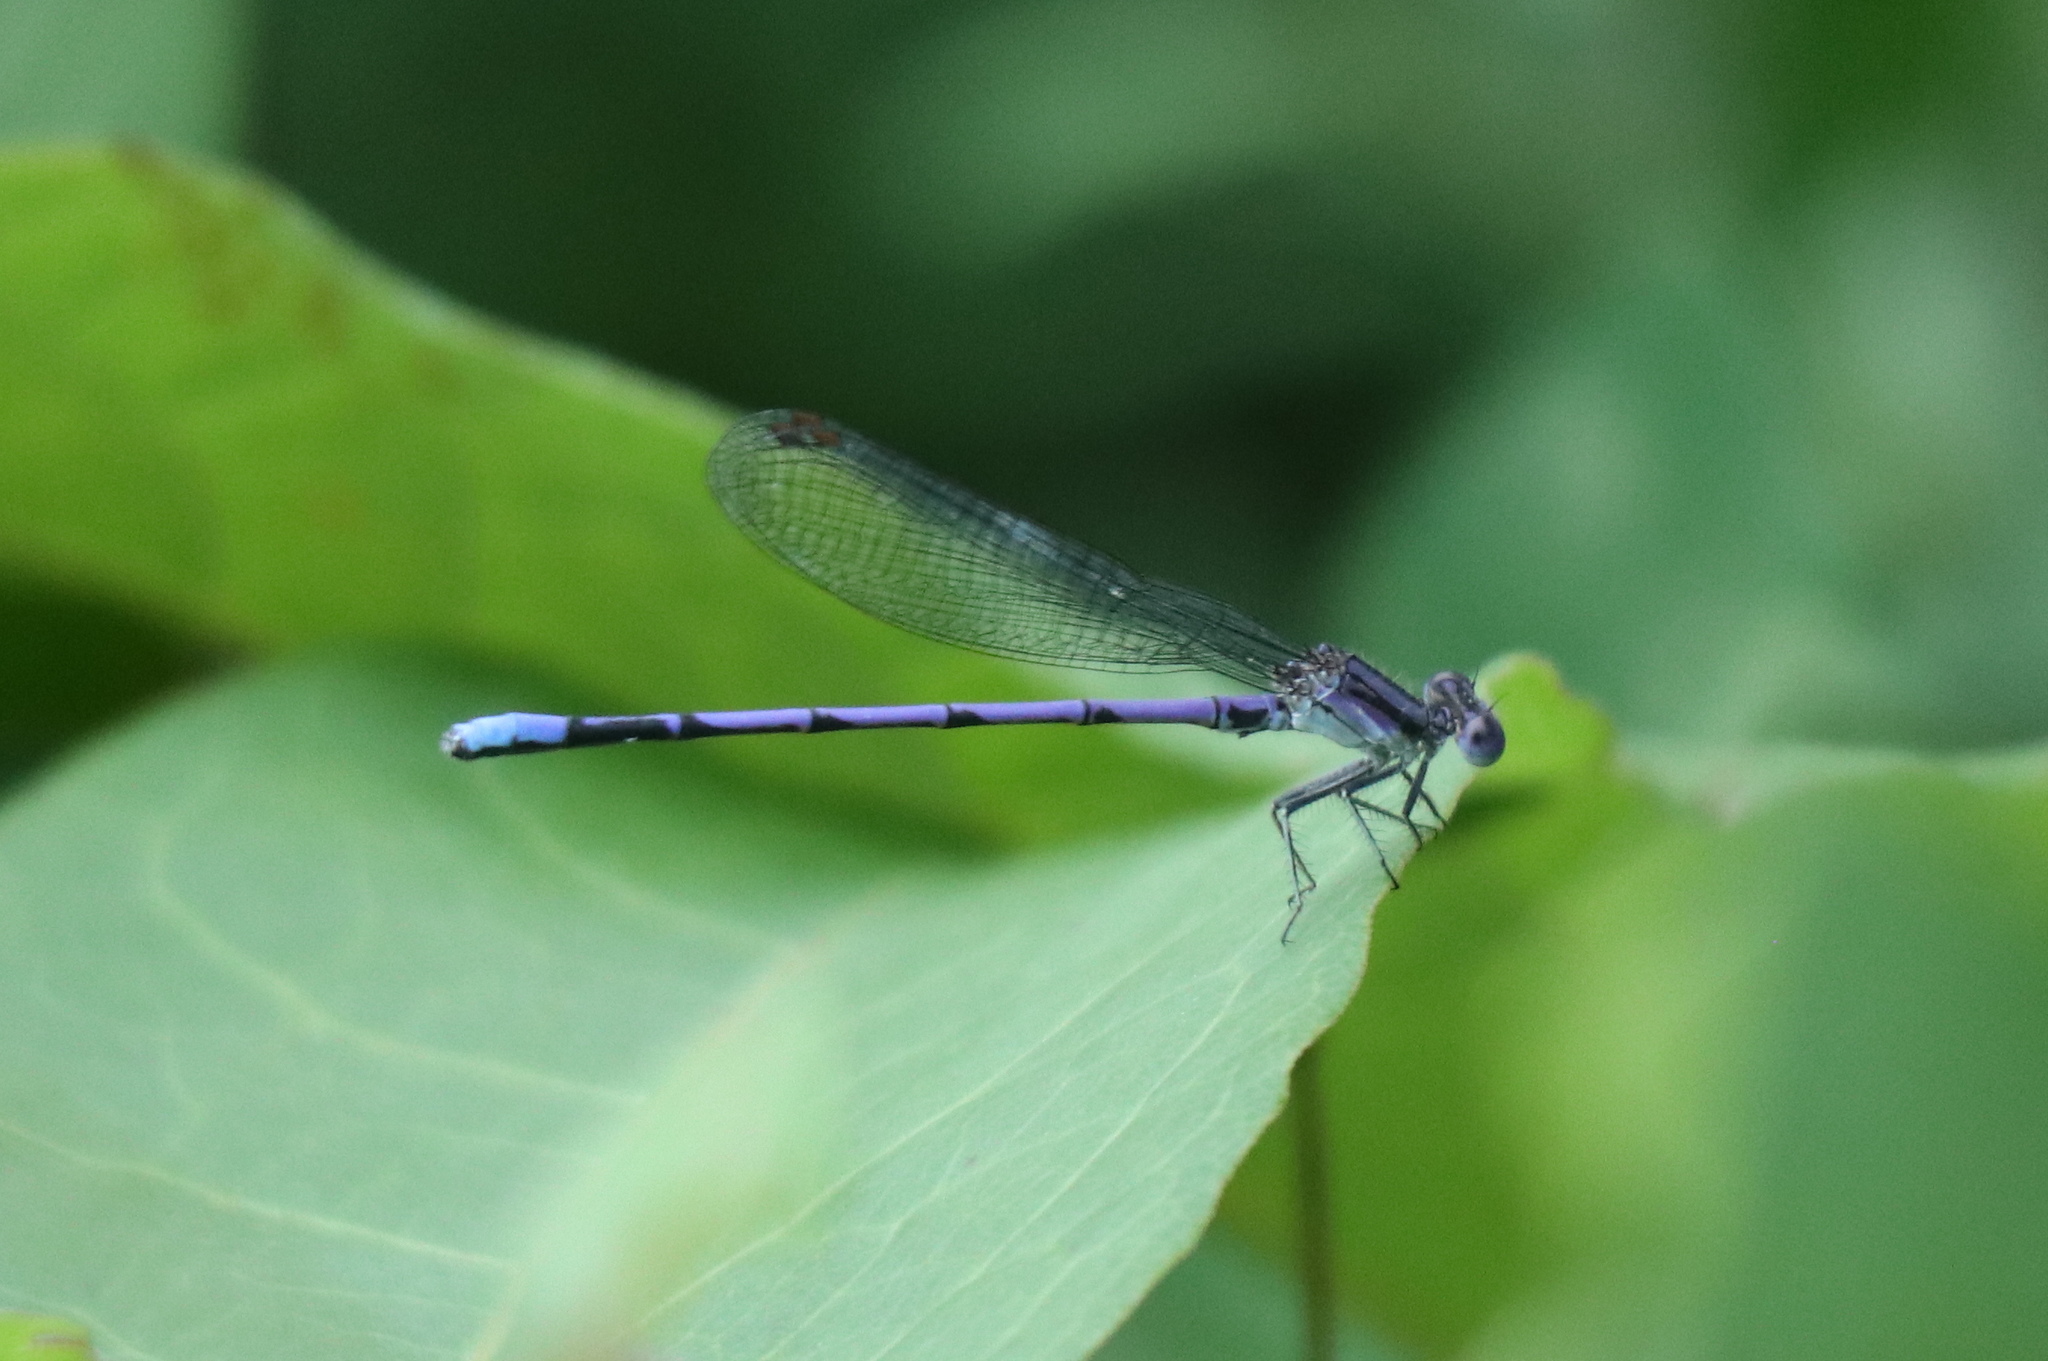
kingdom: Animalia
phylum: Arthropoda
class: Insecta
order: Odonata
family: Coenagrionidae
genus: Argia
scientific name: Argia fumipennis
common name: Variable dancer
